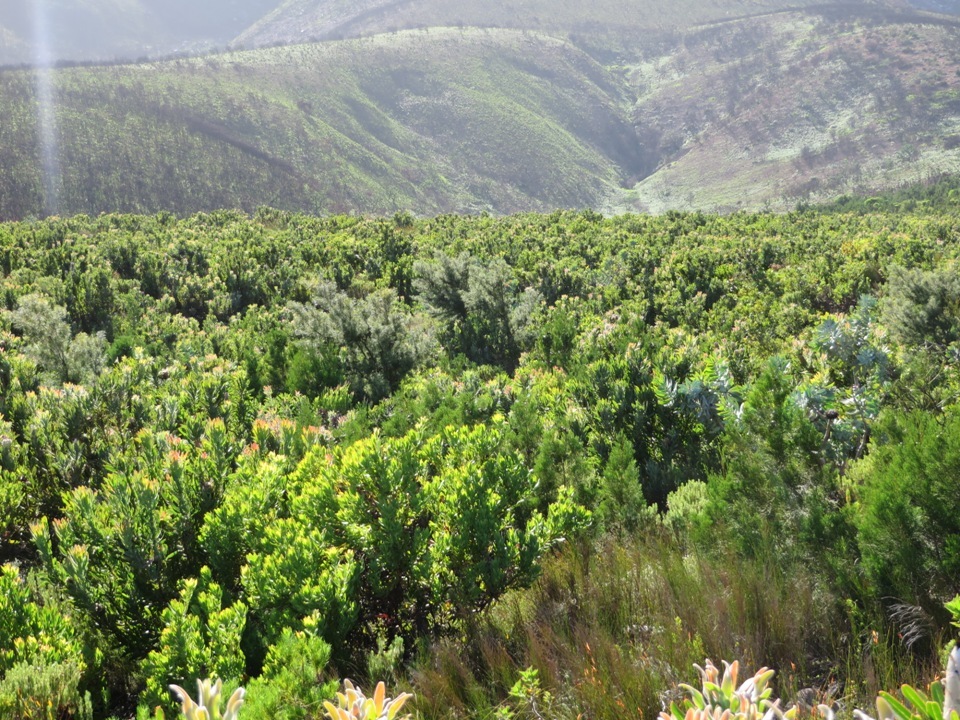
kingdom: Plantae
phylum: Tracheophyta
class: Magnoliopsida
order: Proteales
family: Proteaceae
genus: Hakea
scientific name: Hakea sericea
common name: Needle bush
